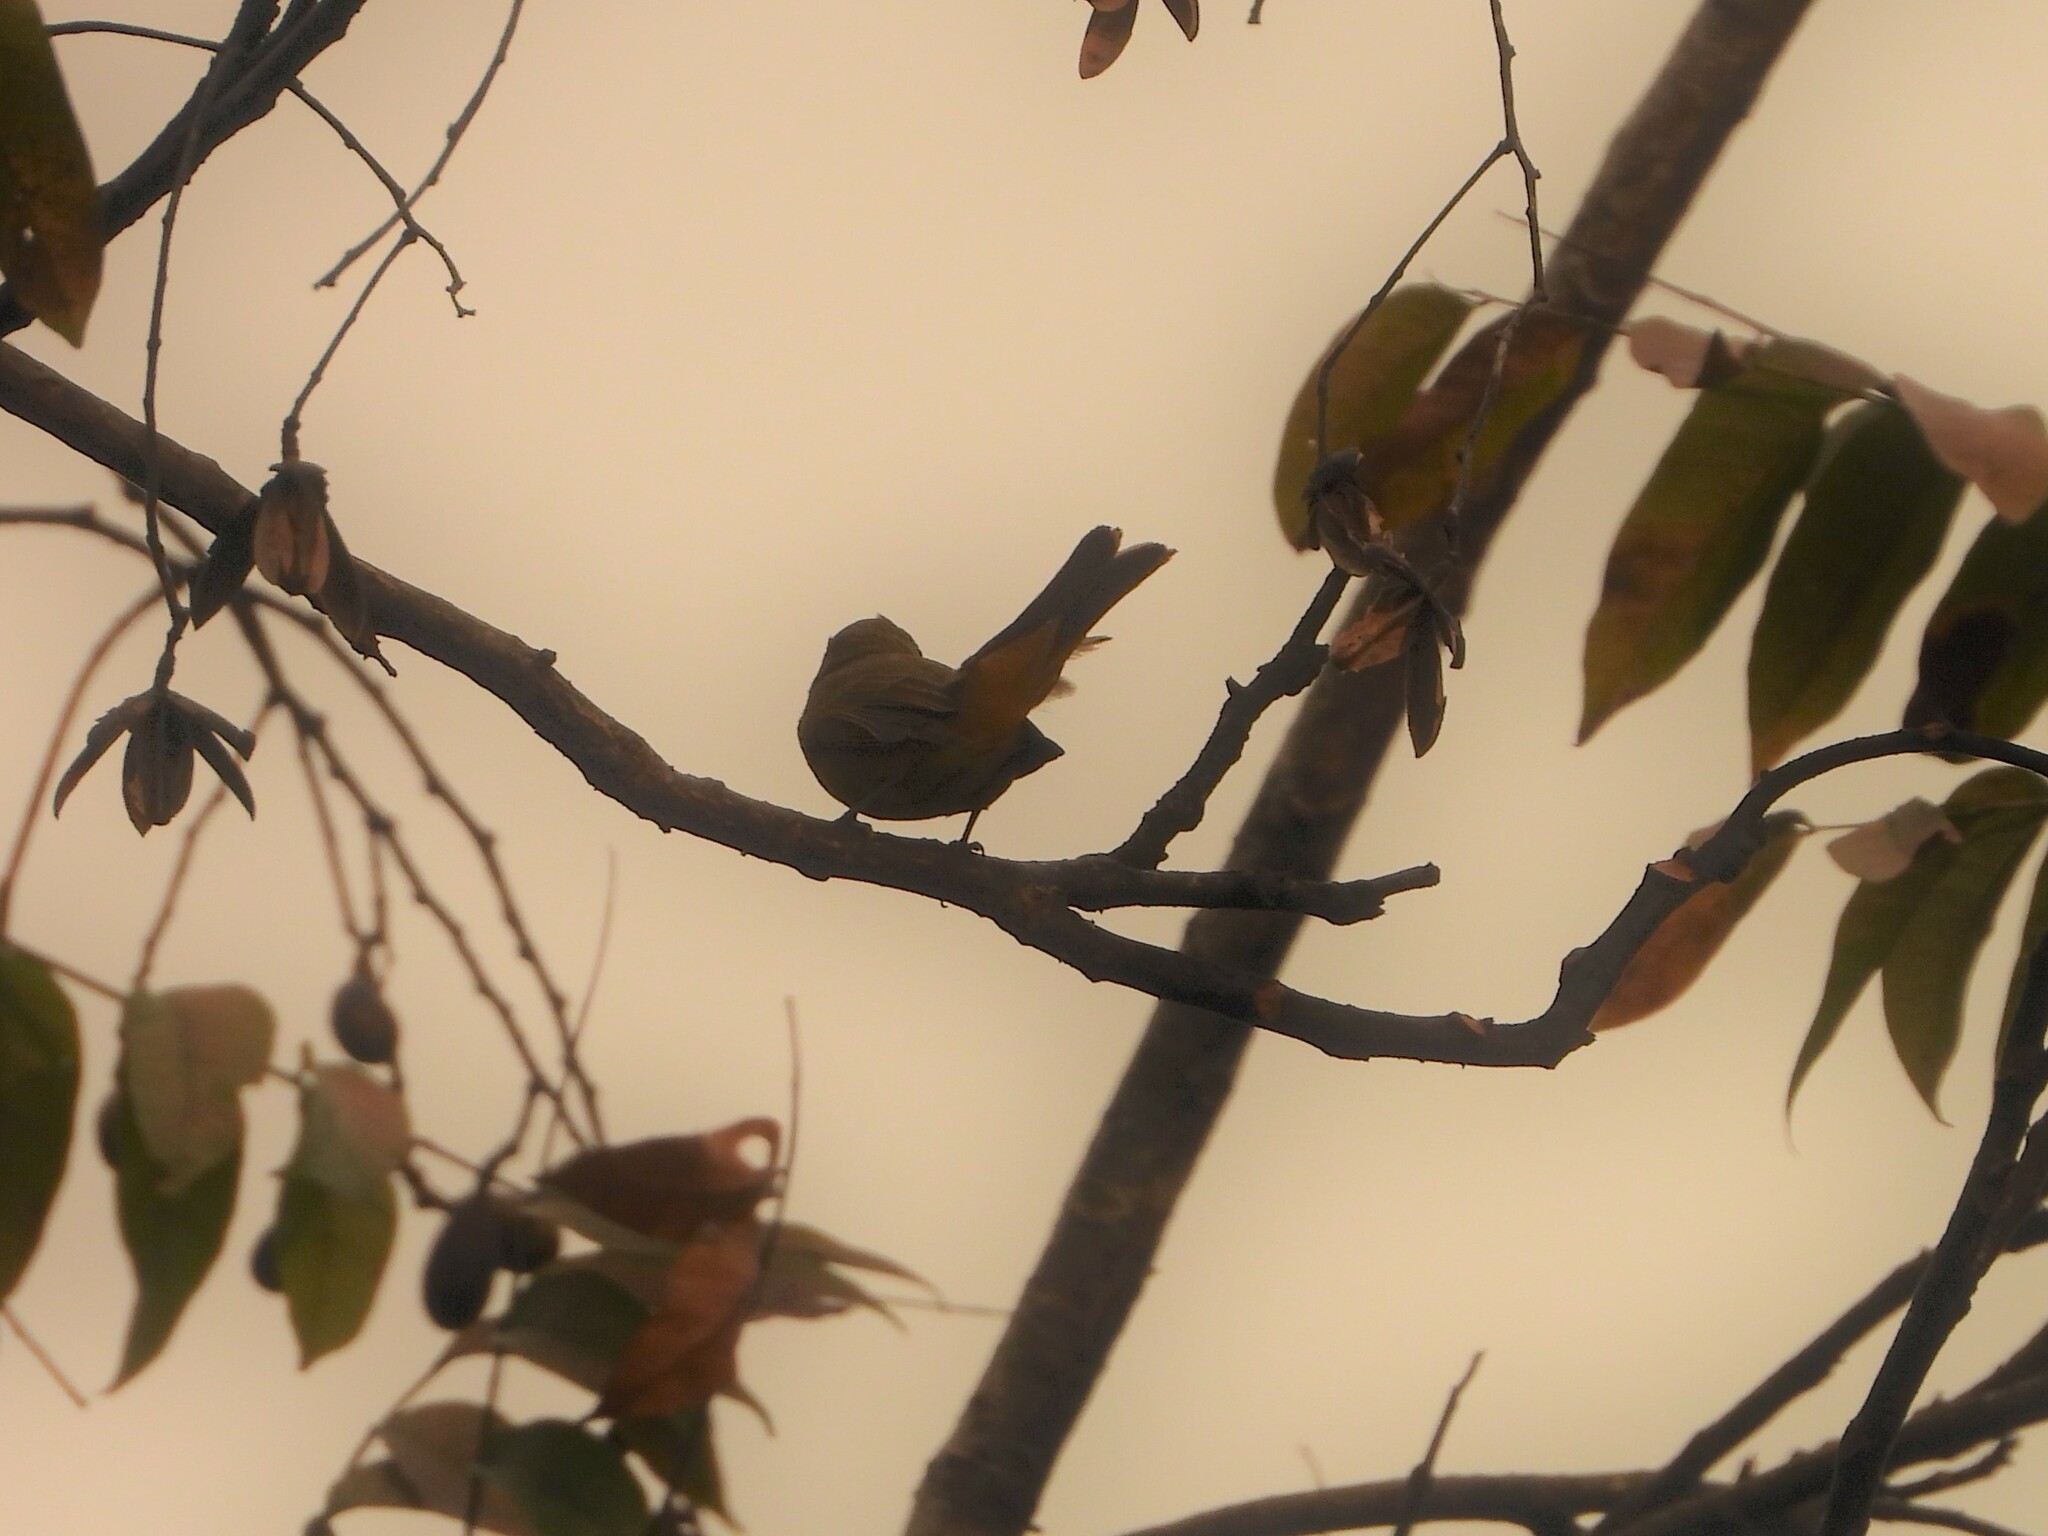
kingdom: Animalia
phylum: Chordata
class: Aves
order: Passeriformes
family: Thraupidae
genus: Saltator
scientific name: Saltator maximus
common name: Buff-throated saltator
